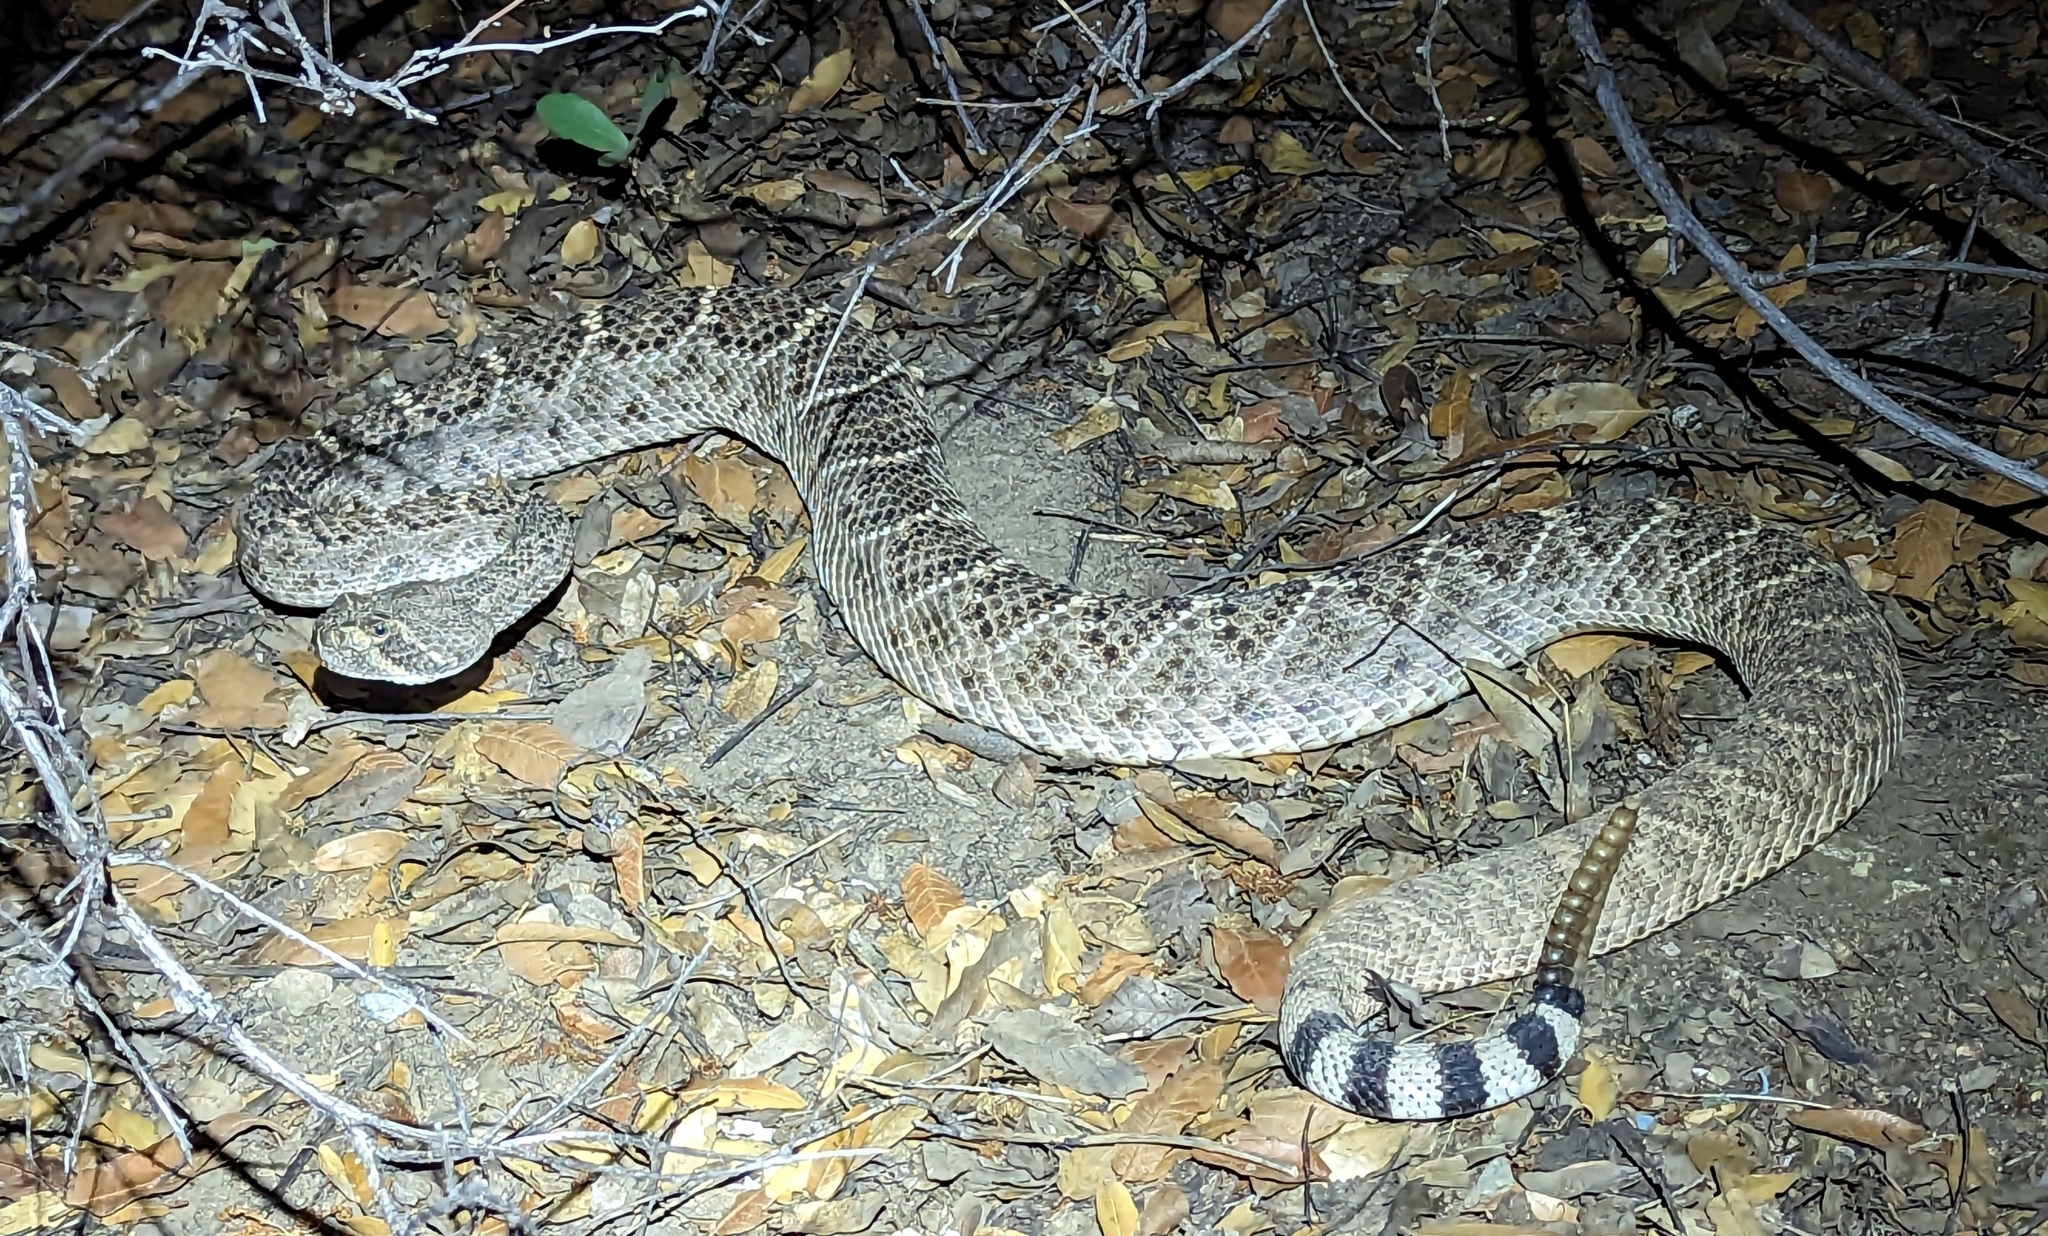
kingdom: Animalia
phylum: Chordata
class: Squamata
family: Viperidae
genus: Crotalus
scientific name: Crotalus atrox
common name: Western diamond-backed rattlesnake
